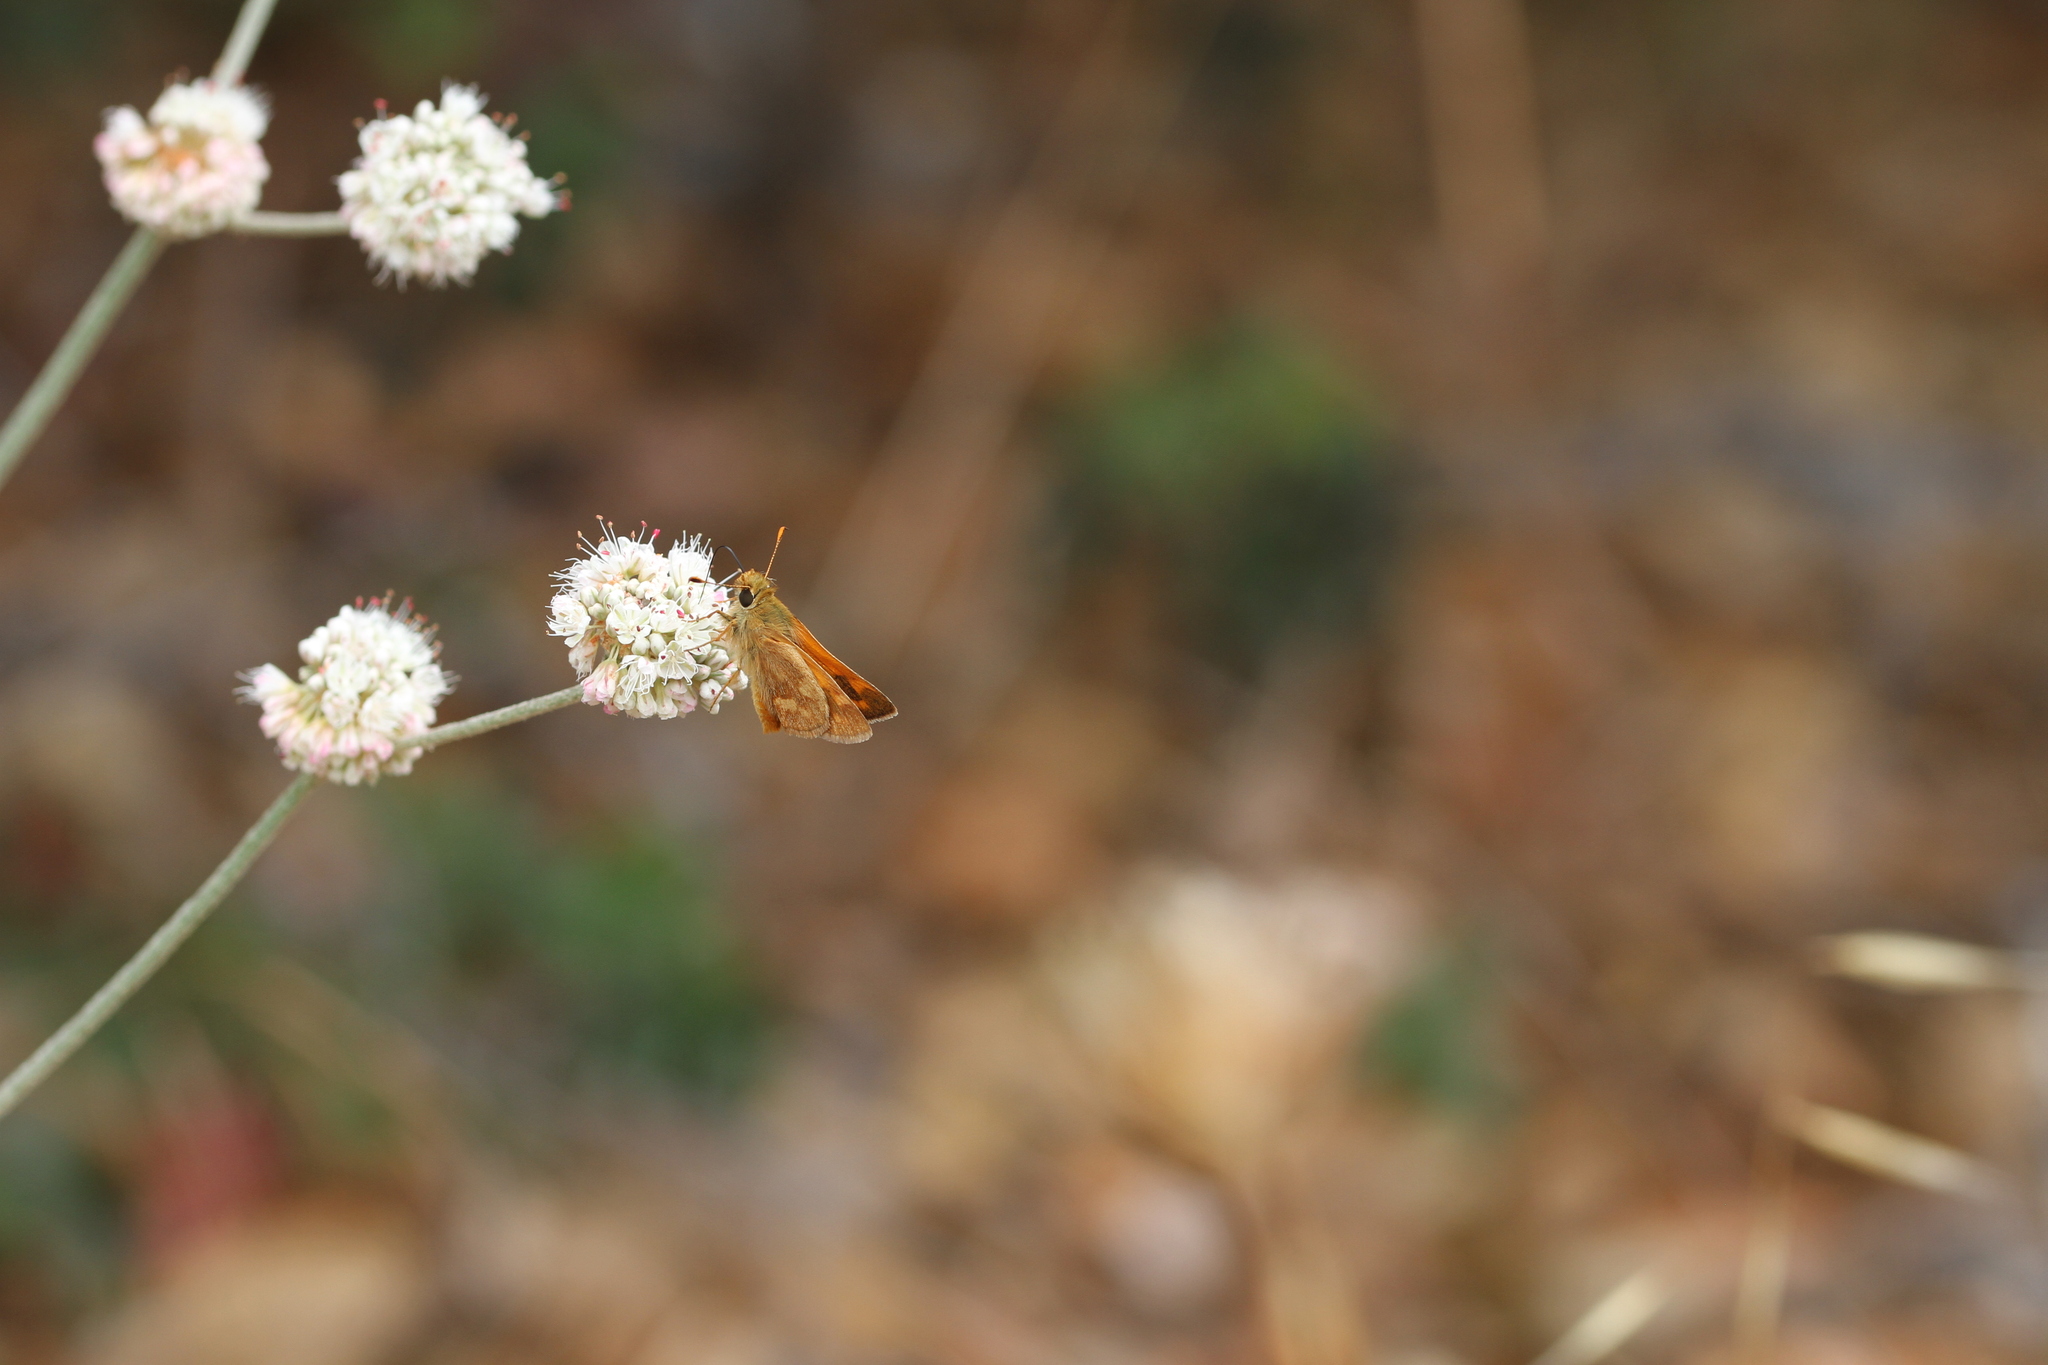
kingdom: Animalia
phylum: Arthropoda
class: Insecta
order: Lepidoptera
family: Hesperiidae
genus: Ochlodes
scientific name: Ochlodes sylvanoides
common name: Woodland skipper
